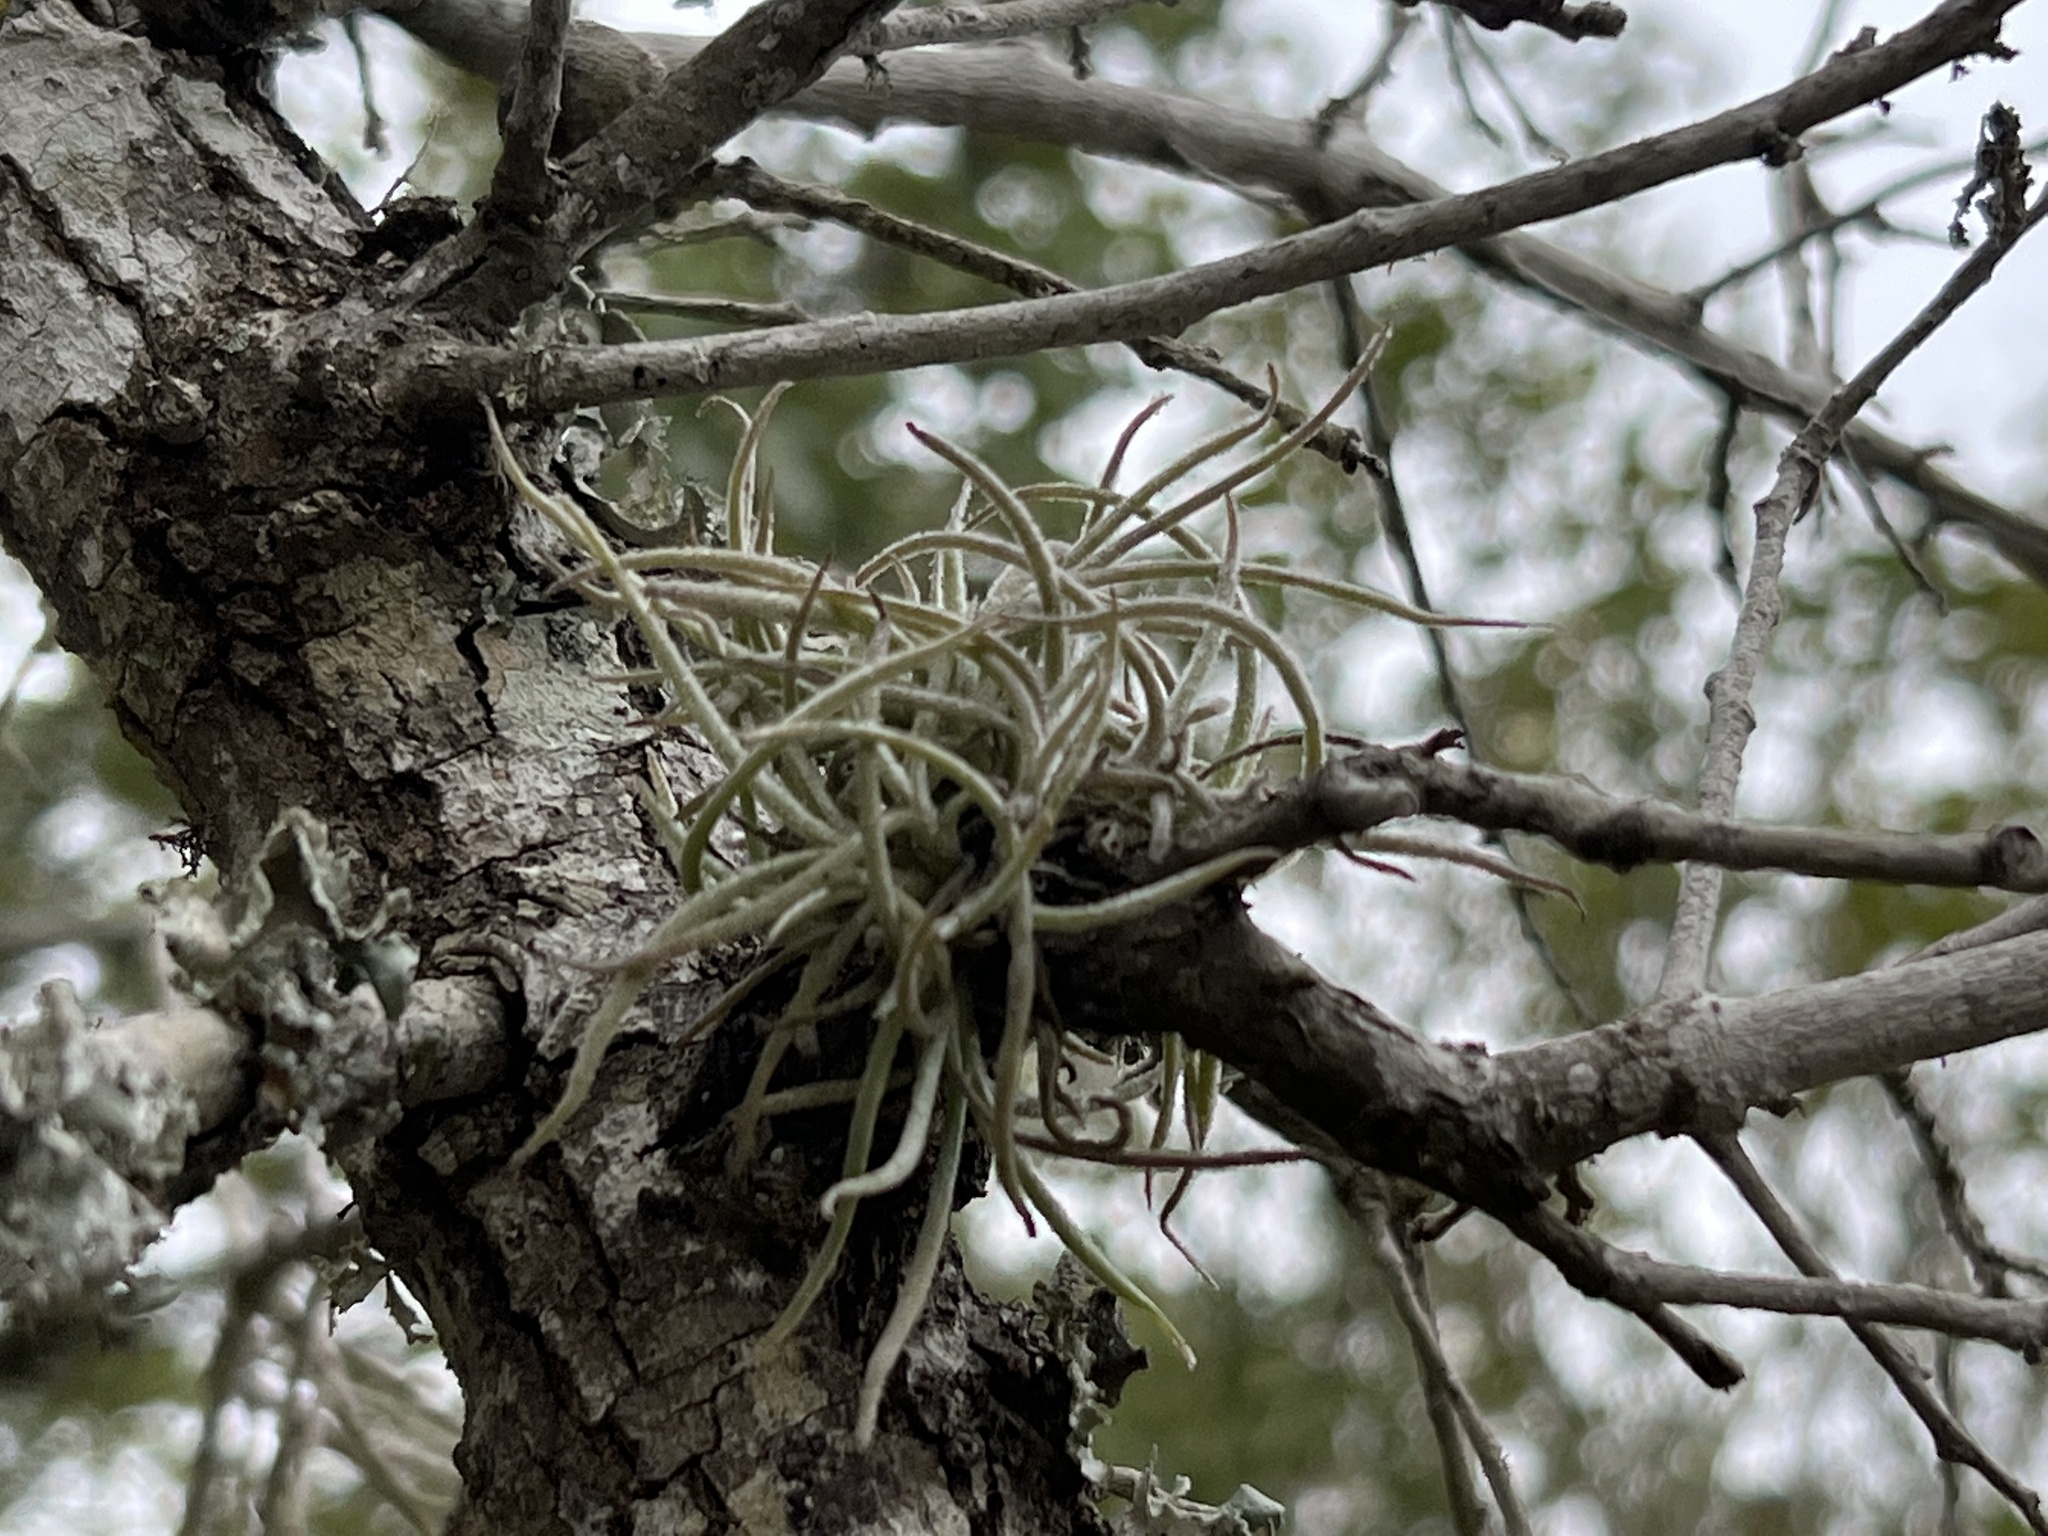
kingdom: Plantae
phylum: Tracheophyta
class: Liliopsida
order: Poales
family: Bromeliaceae
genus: Tillandsia
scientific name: Tillandsia recurvata
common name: Small ballmoss
